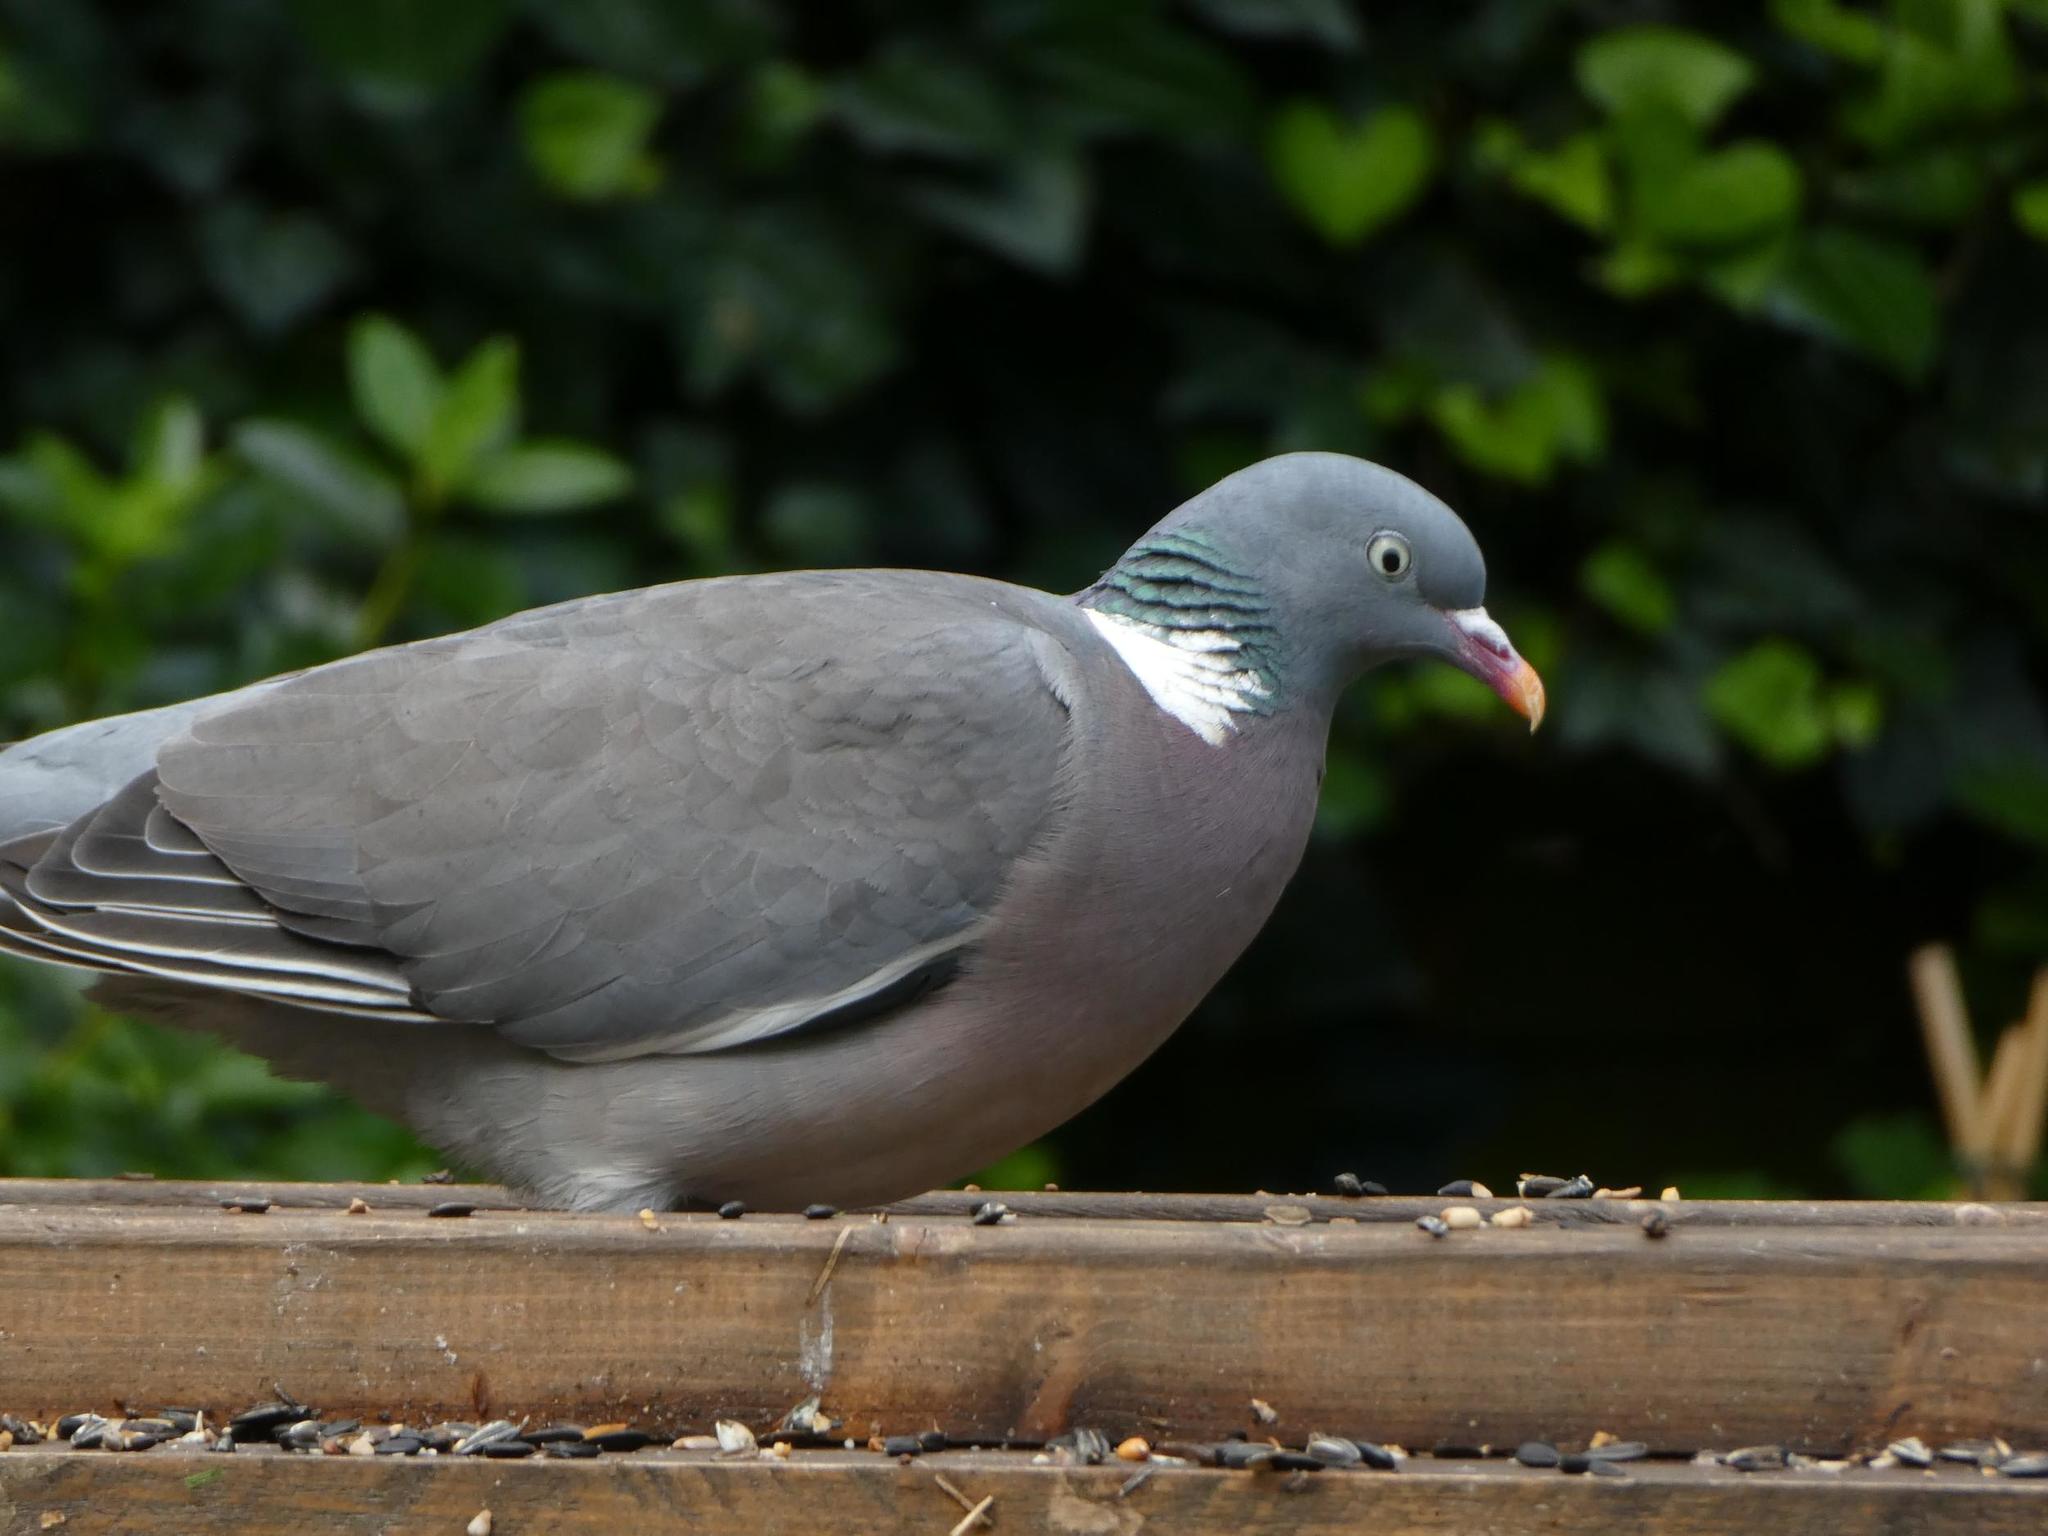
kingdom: Animalia
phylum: Chordata
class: Aves
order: Columbiformes
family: Columbidae
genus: Columba
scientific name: Columba palumbus
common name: Common wood pigeon
